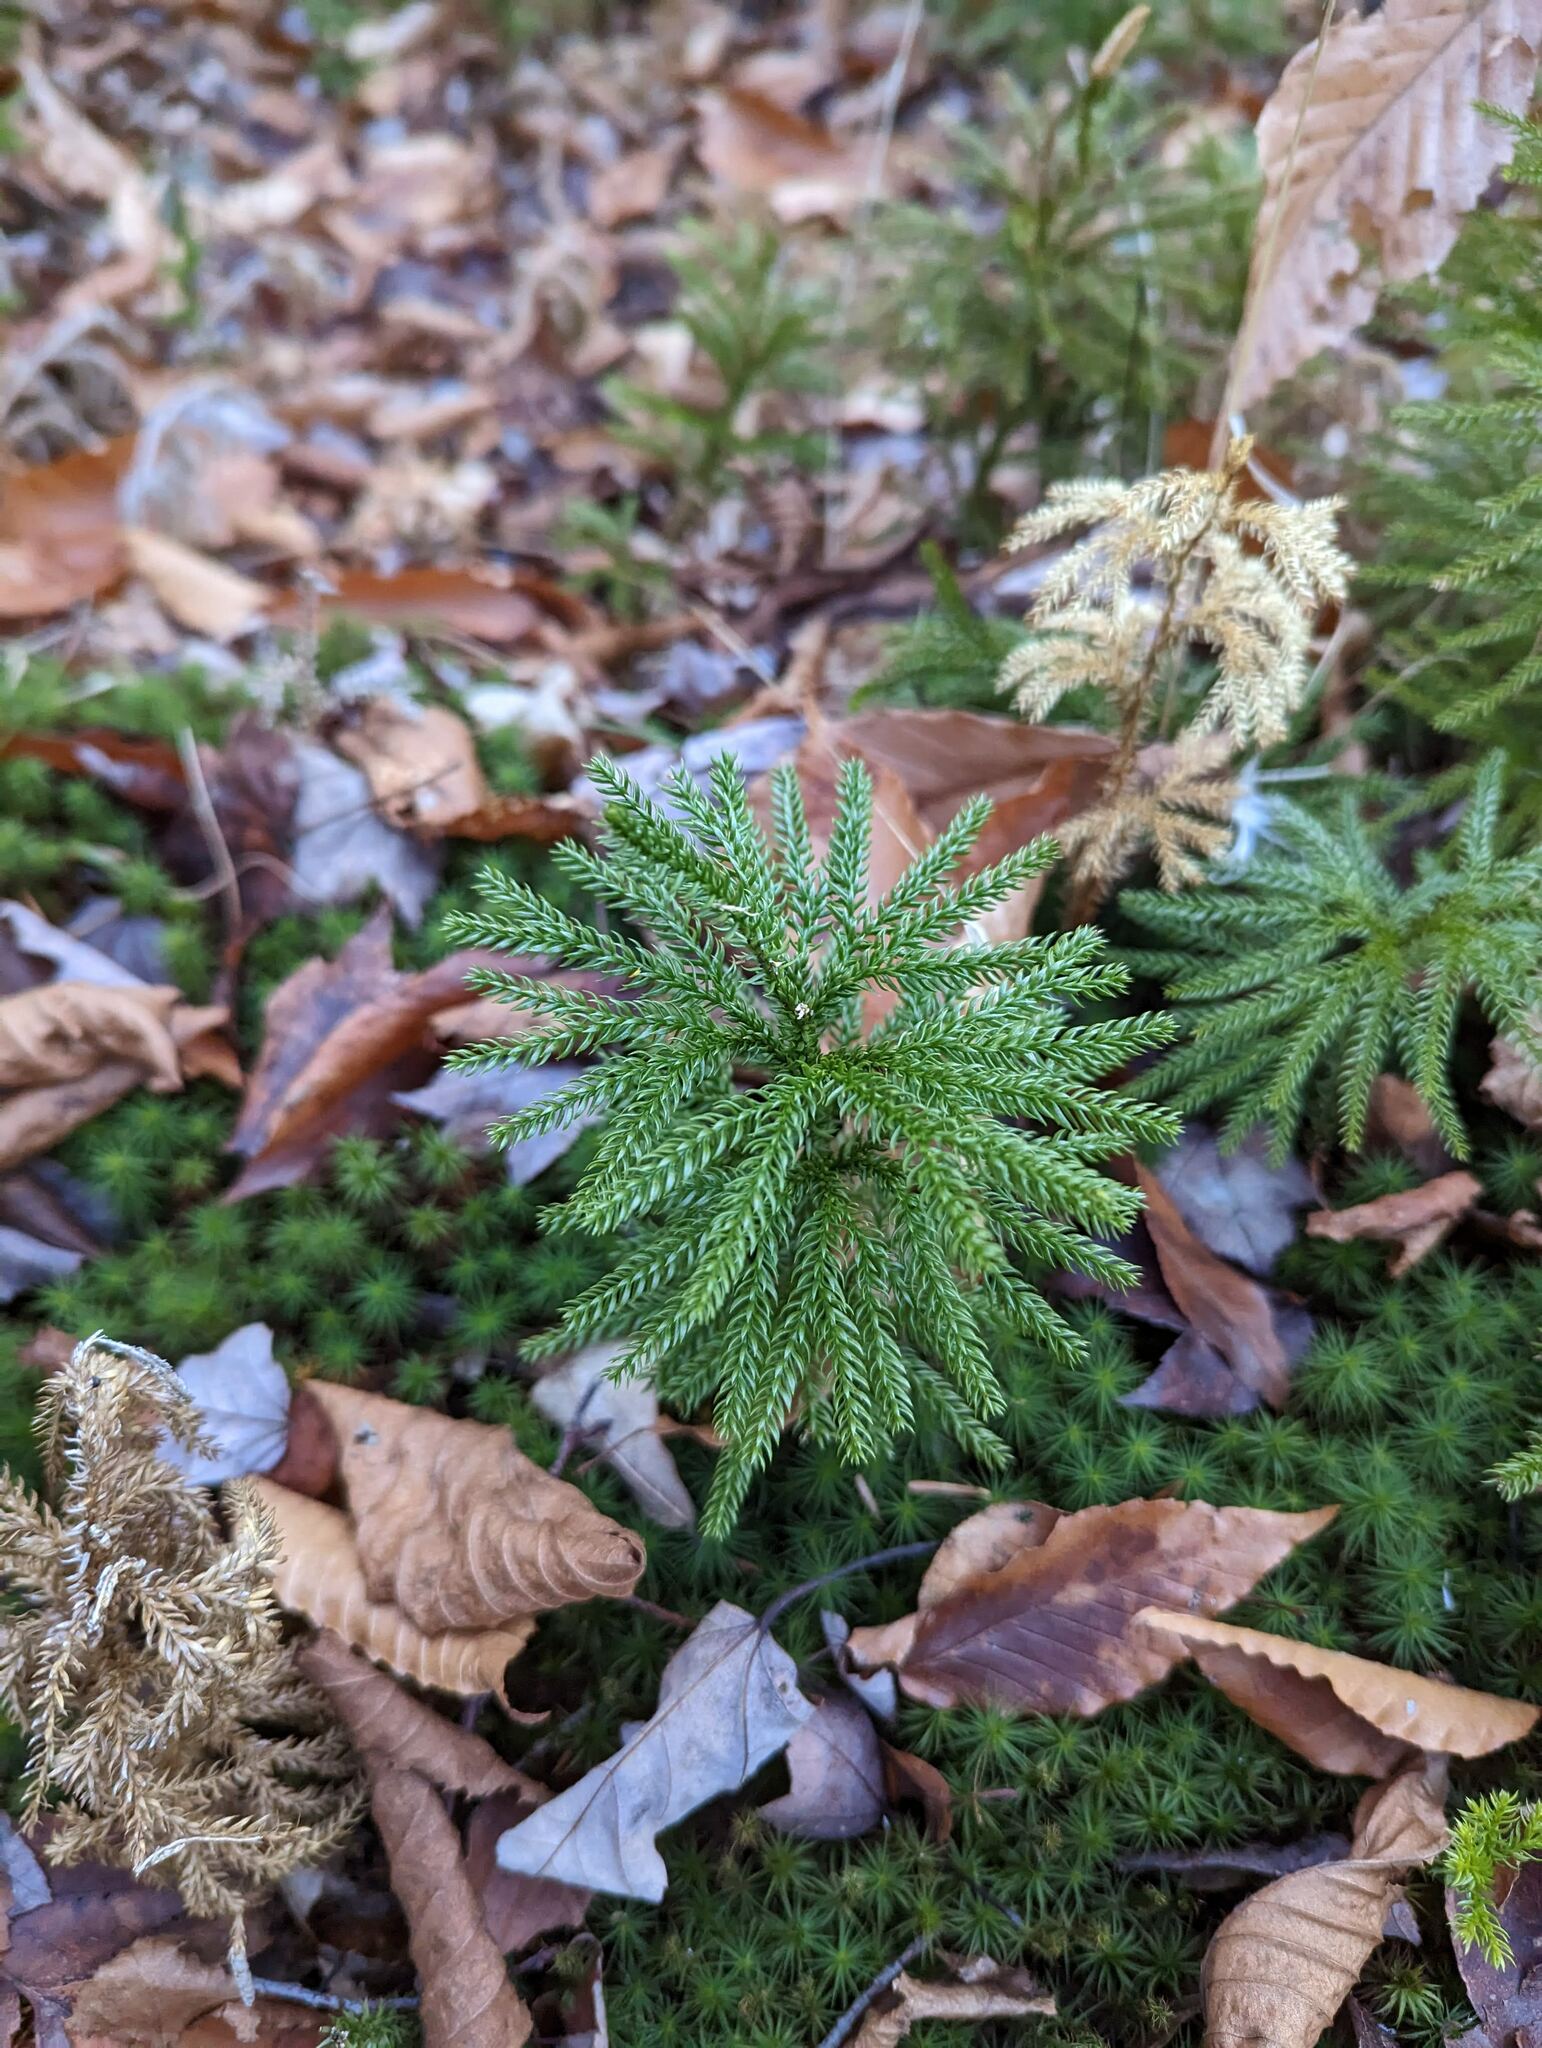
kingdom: Plantae
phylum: Tracheophyta
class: Lycopodiopsida
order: Lycopodiales
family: Lycopodiaceae
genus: Dendrolycopodium
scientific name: Dendrolycopodium dendroideum
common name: Northern tree-clubmoss
